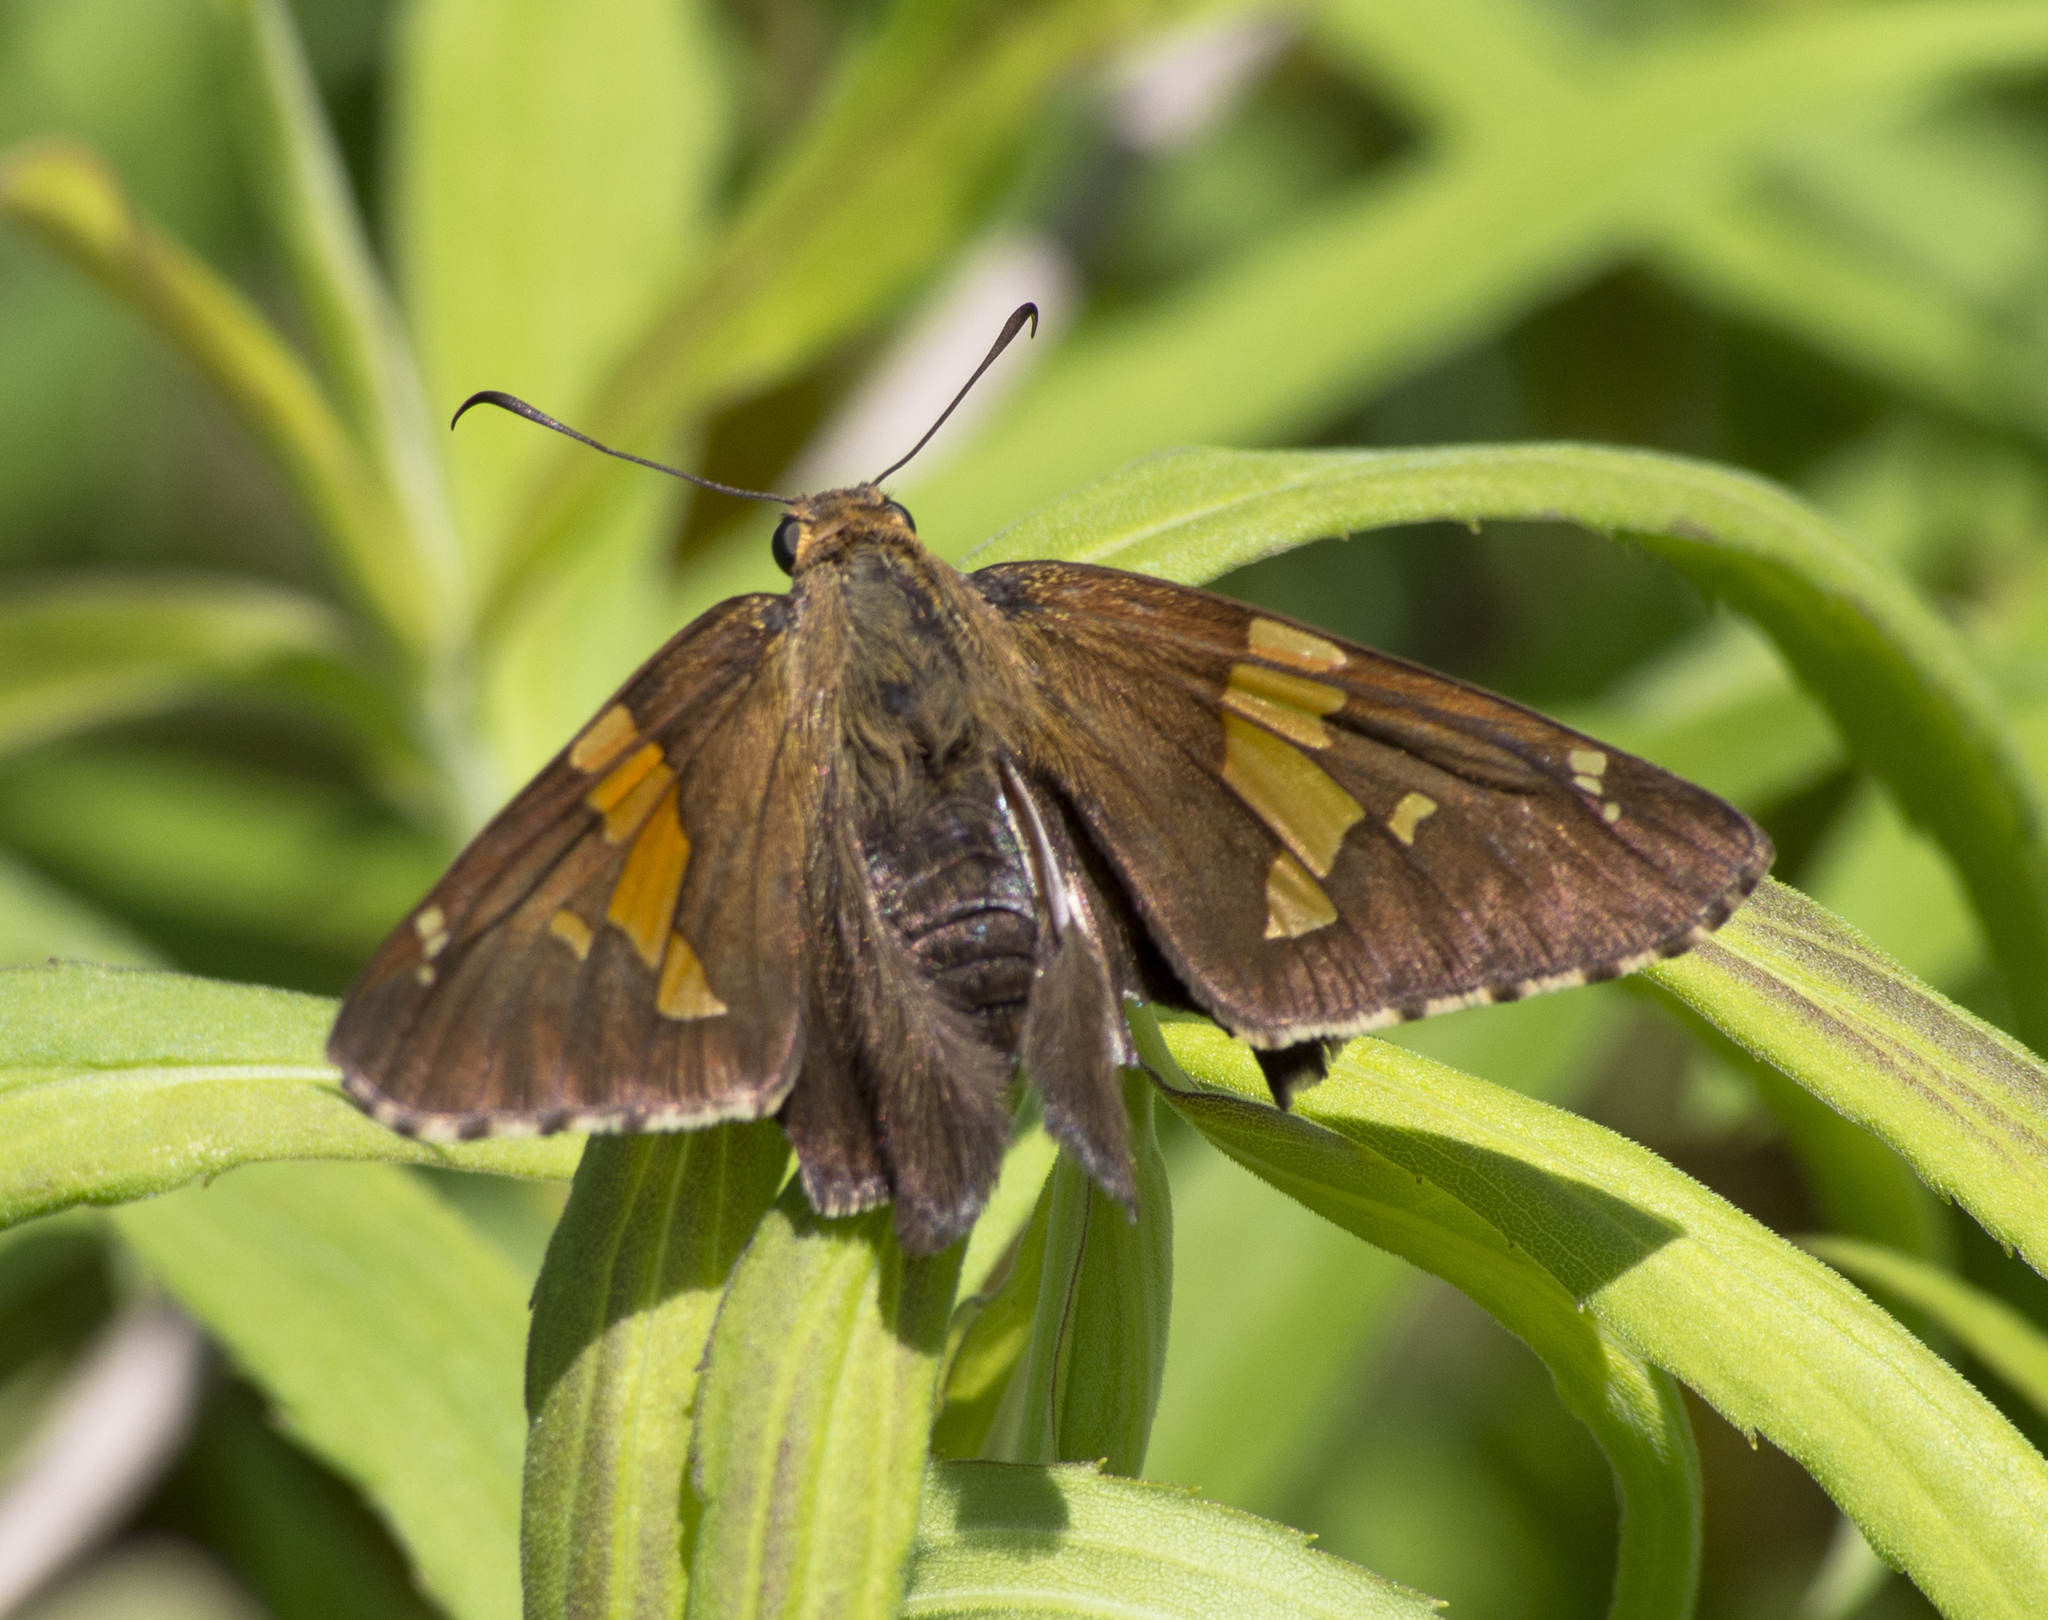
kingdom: Animalia
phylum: Arthropoda
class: Insecta
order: Lepidoptera
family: Hesperiidae
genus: Epargyreus
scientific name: Epargyreus clarus
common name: Silver-spotted skipper
